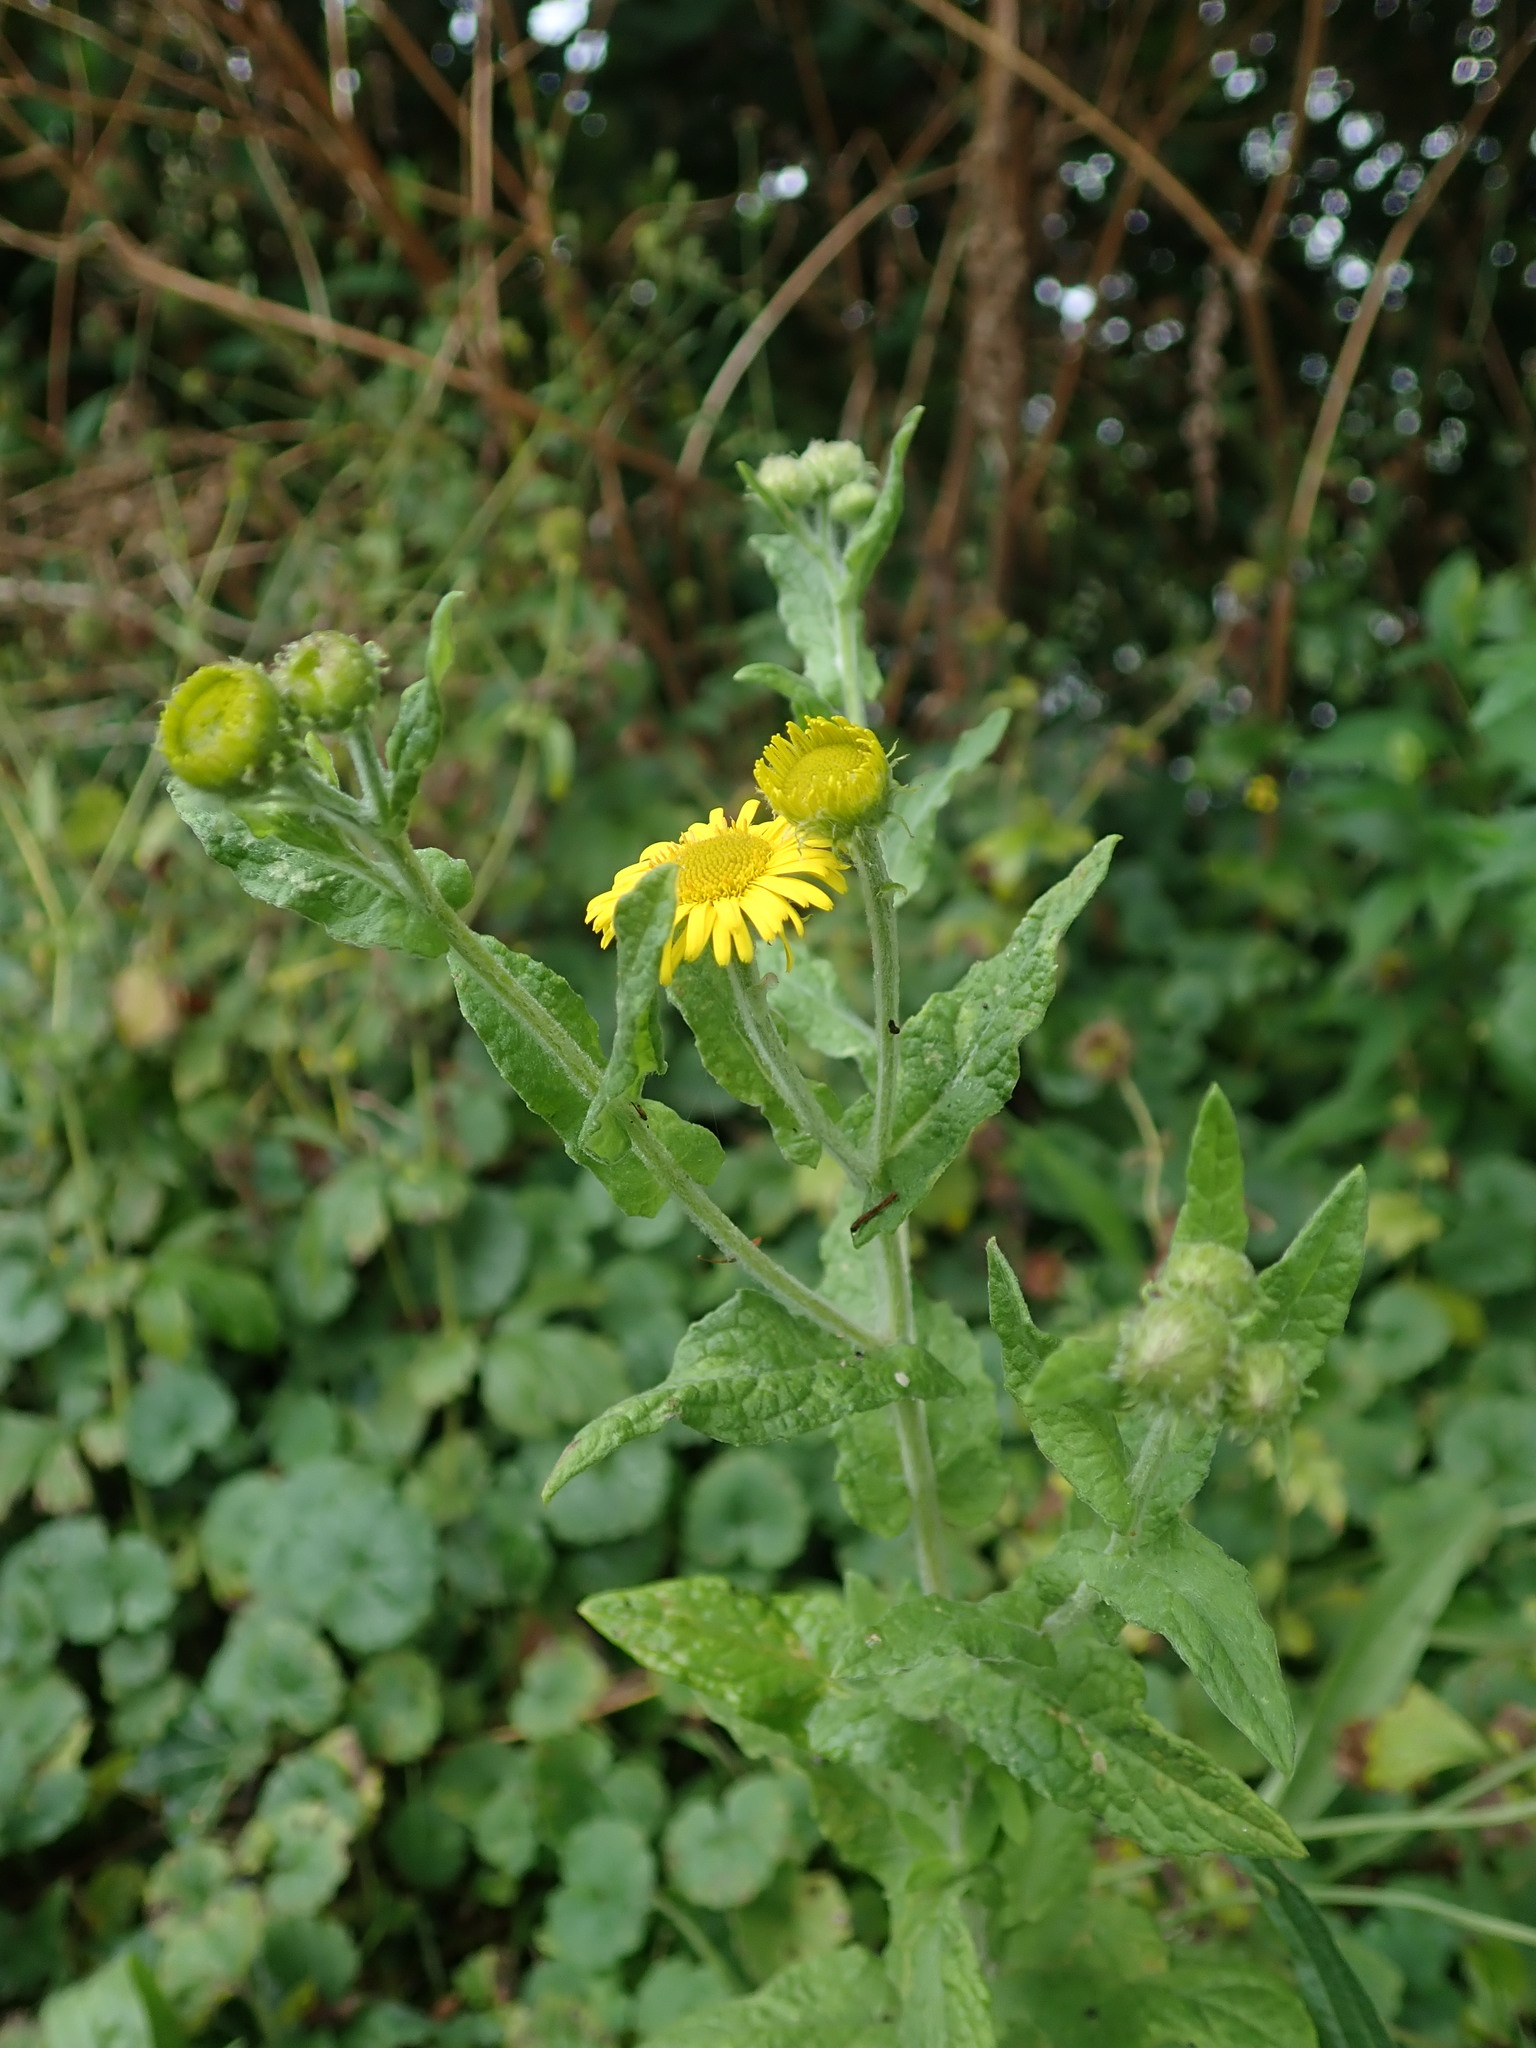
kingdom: Plantae
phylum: Tracheophyta
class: Magnoliopsida
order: Asterales
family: Asteraceae
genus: Pulicaria
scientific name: Pulicaria dysenterica
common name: Common fleabane
